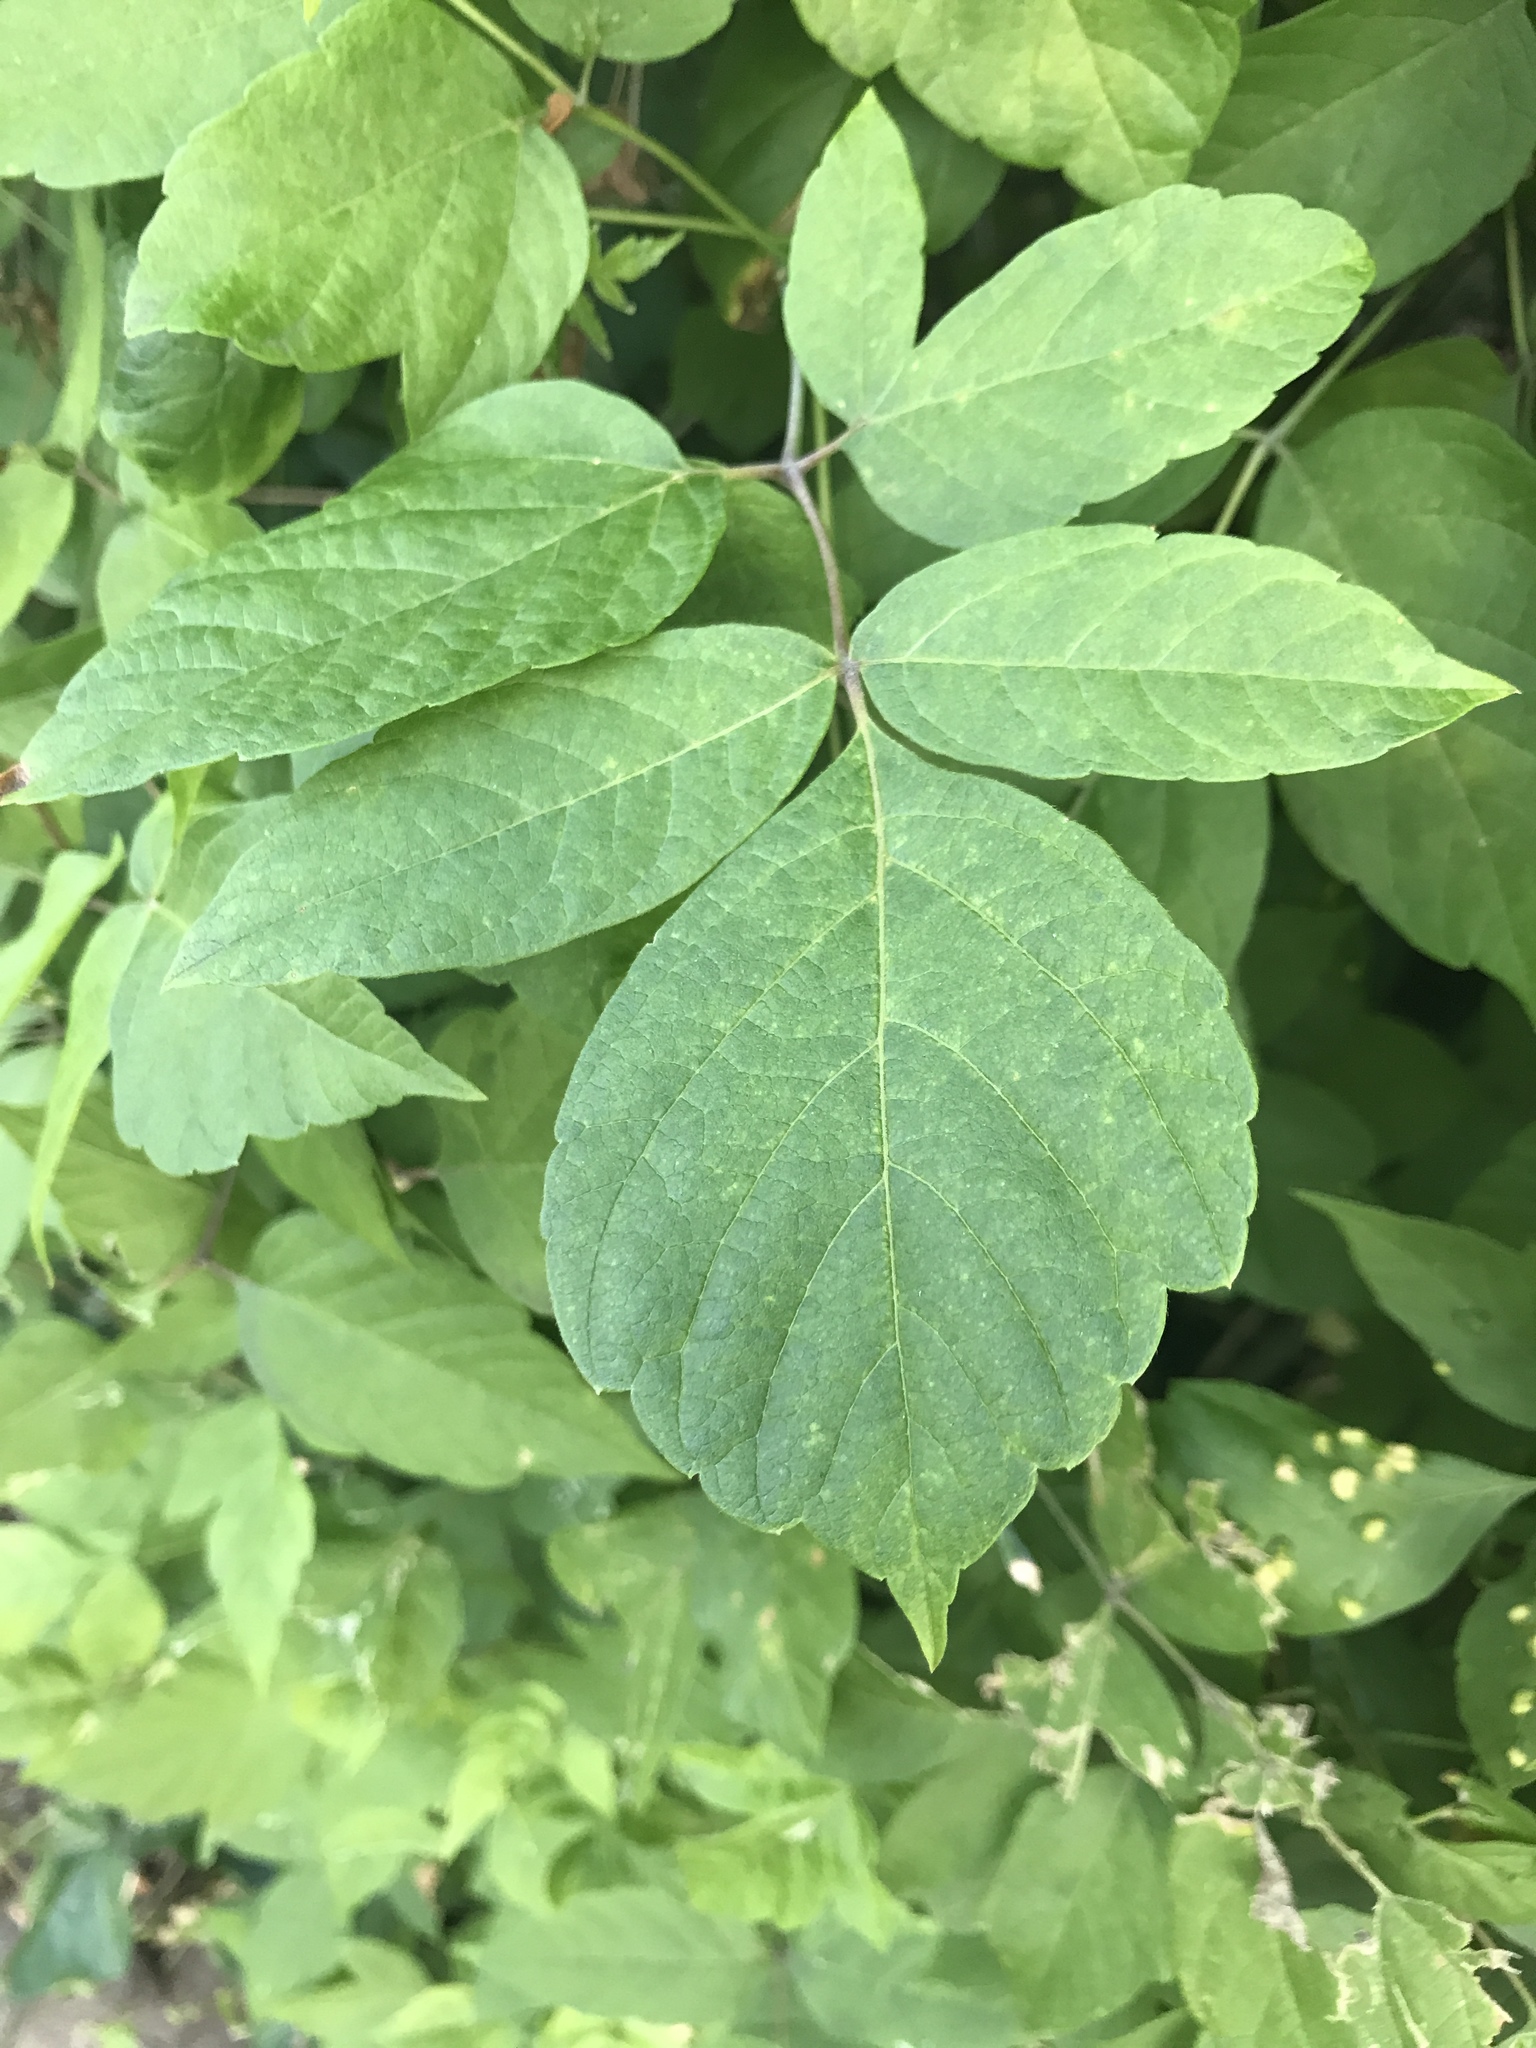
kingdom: Plantae
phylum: Tracheophyta
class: Magnoliopsida
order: Sapindales
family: Sapindaceae
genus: Acer
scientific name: Acer negundo
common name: Ashleaf maple
